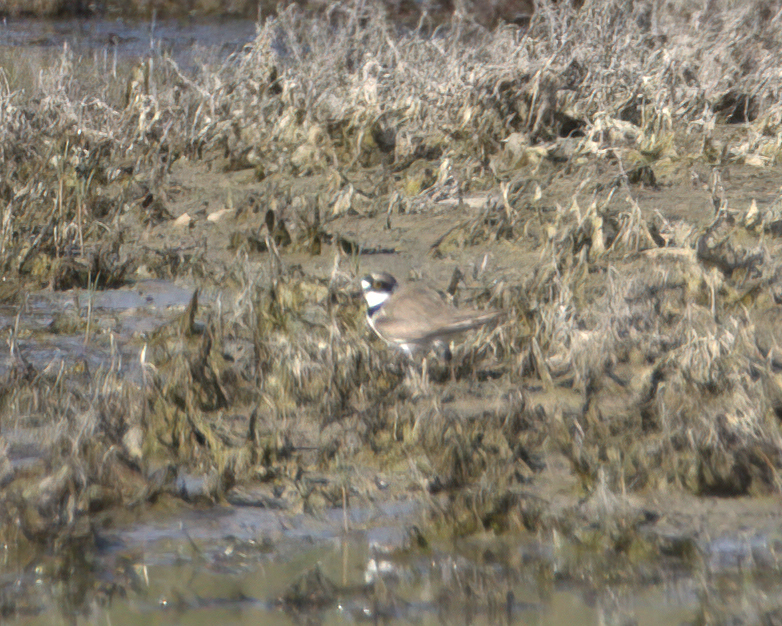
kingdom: Animalia
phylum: Chordata
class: Aves
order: Charadriiformes
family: Charadriidae
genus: Charadrius
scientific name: Charadrius dubius
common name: Little ringed plover
